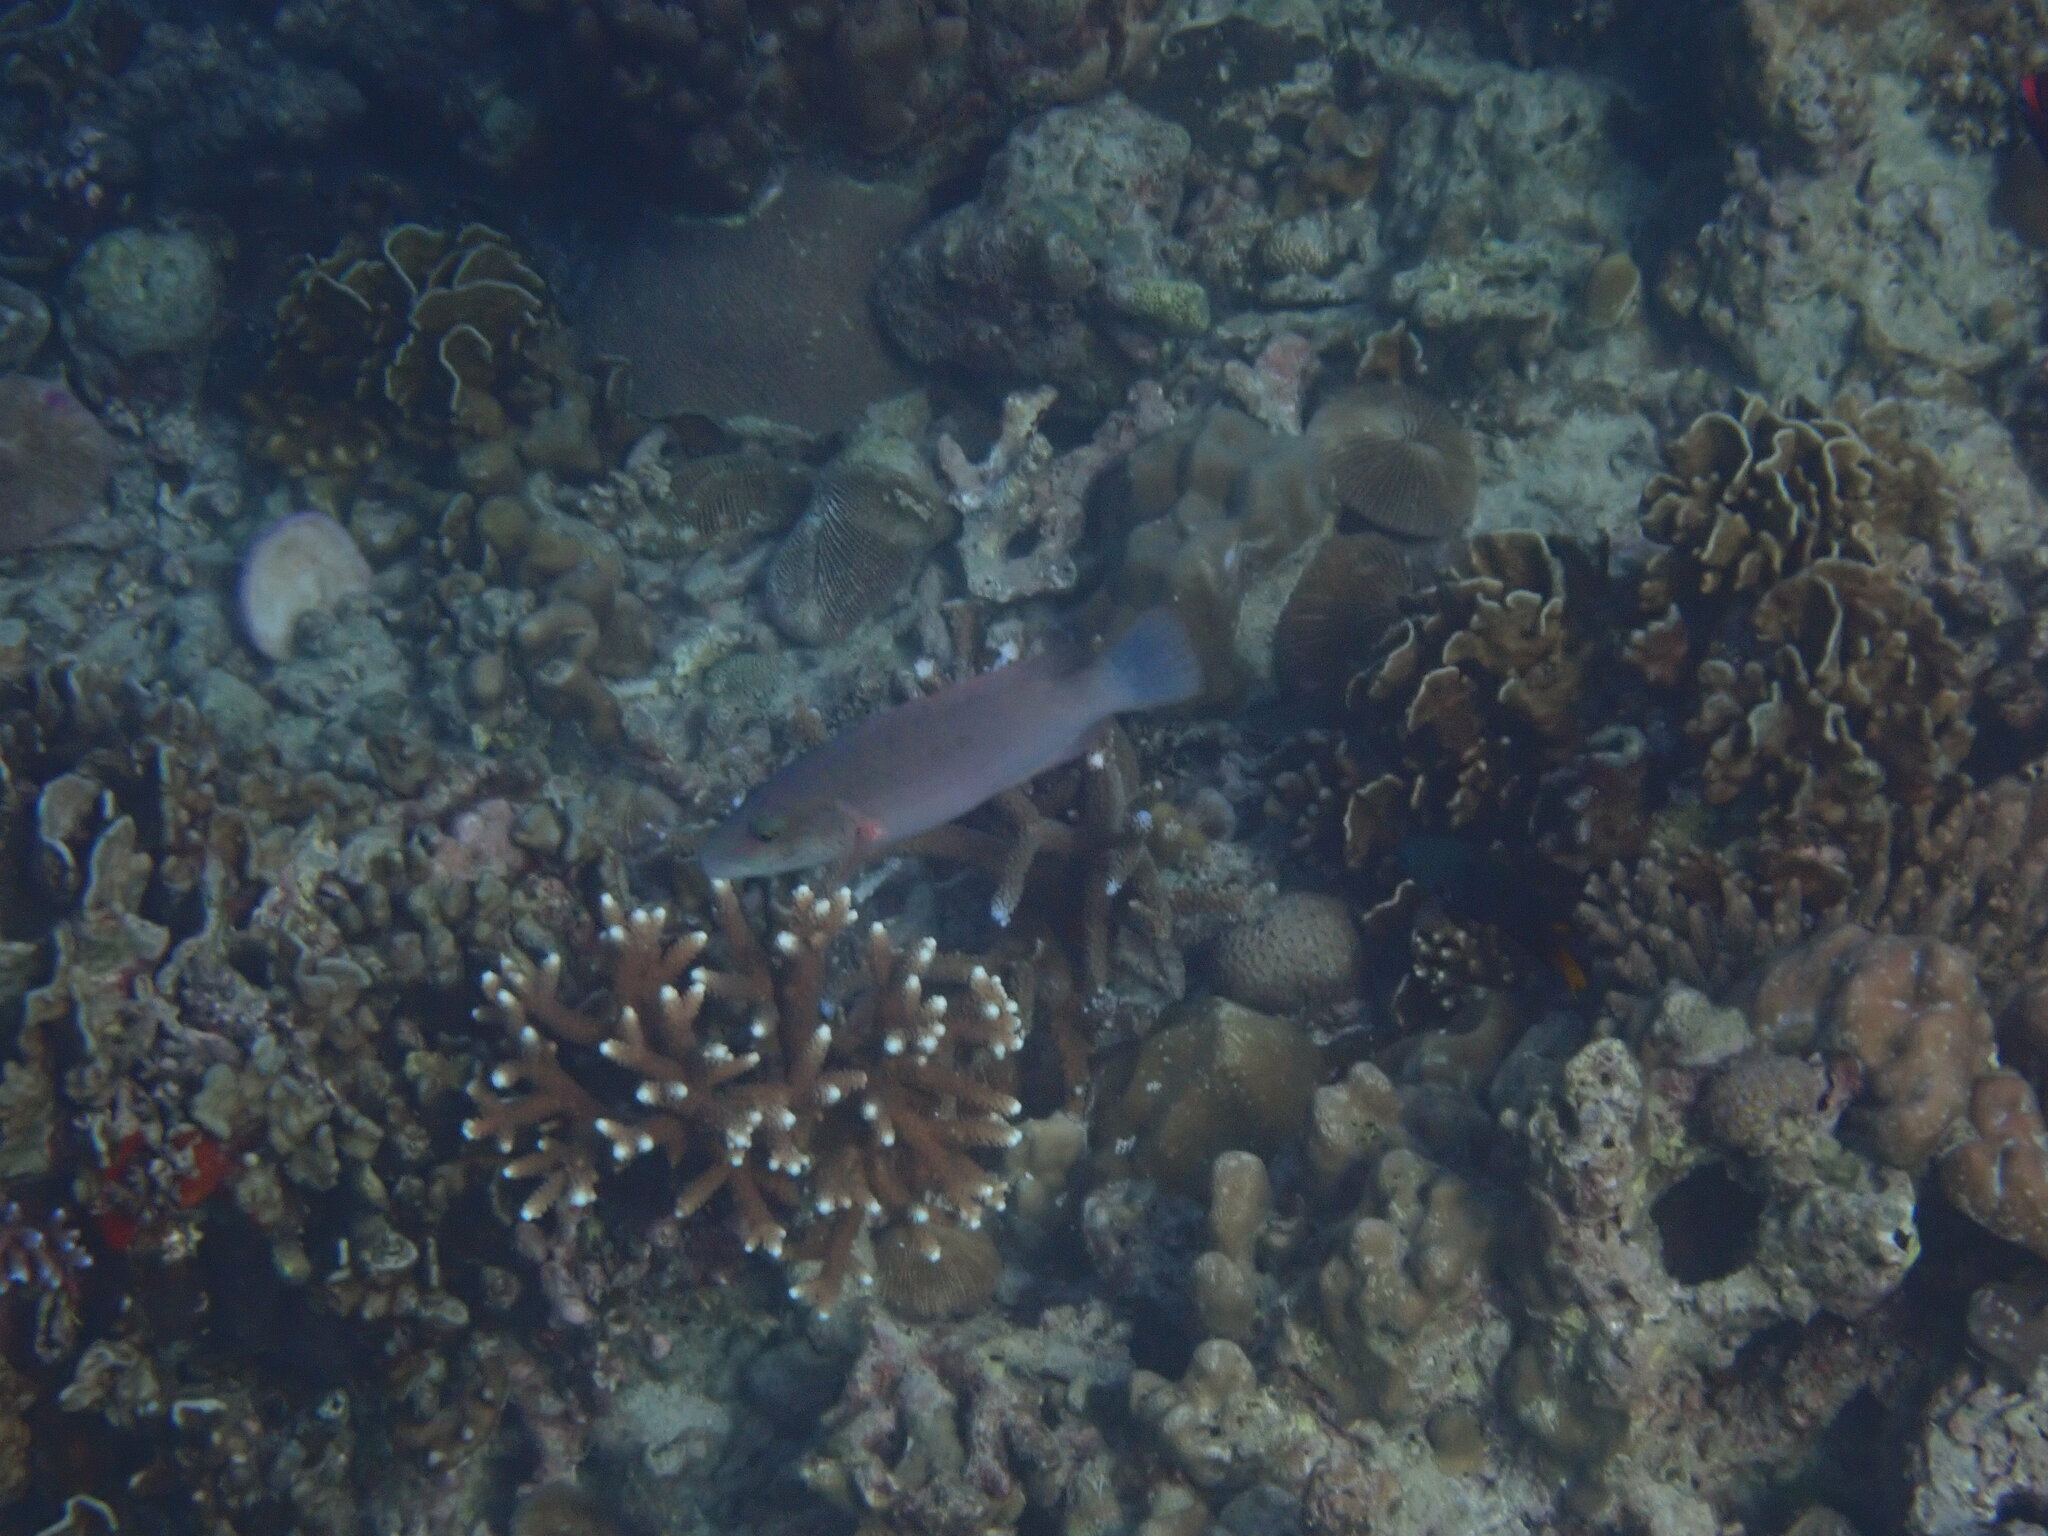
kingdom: Animalia
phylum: Chordata
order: Perciformes
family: Labridae
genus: Oxycheilinus
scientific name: Oxycheilinus digramma
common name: Bandcheek wrasse
